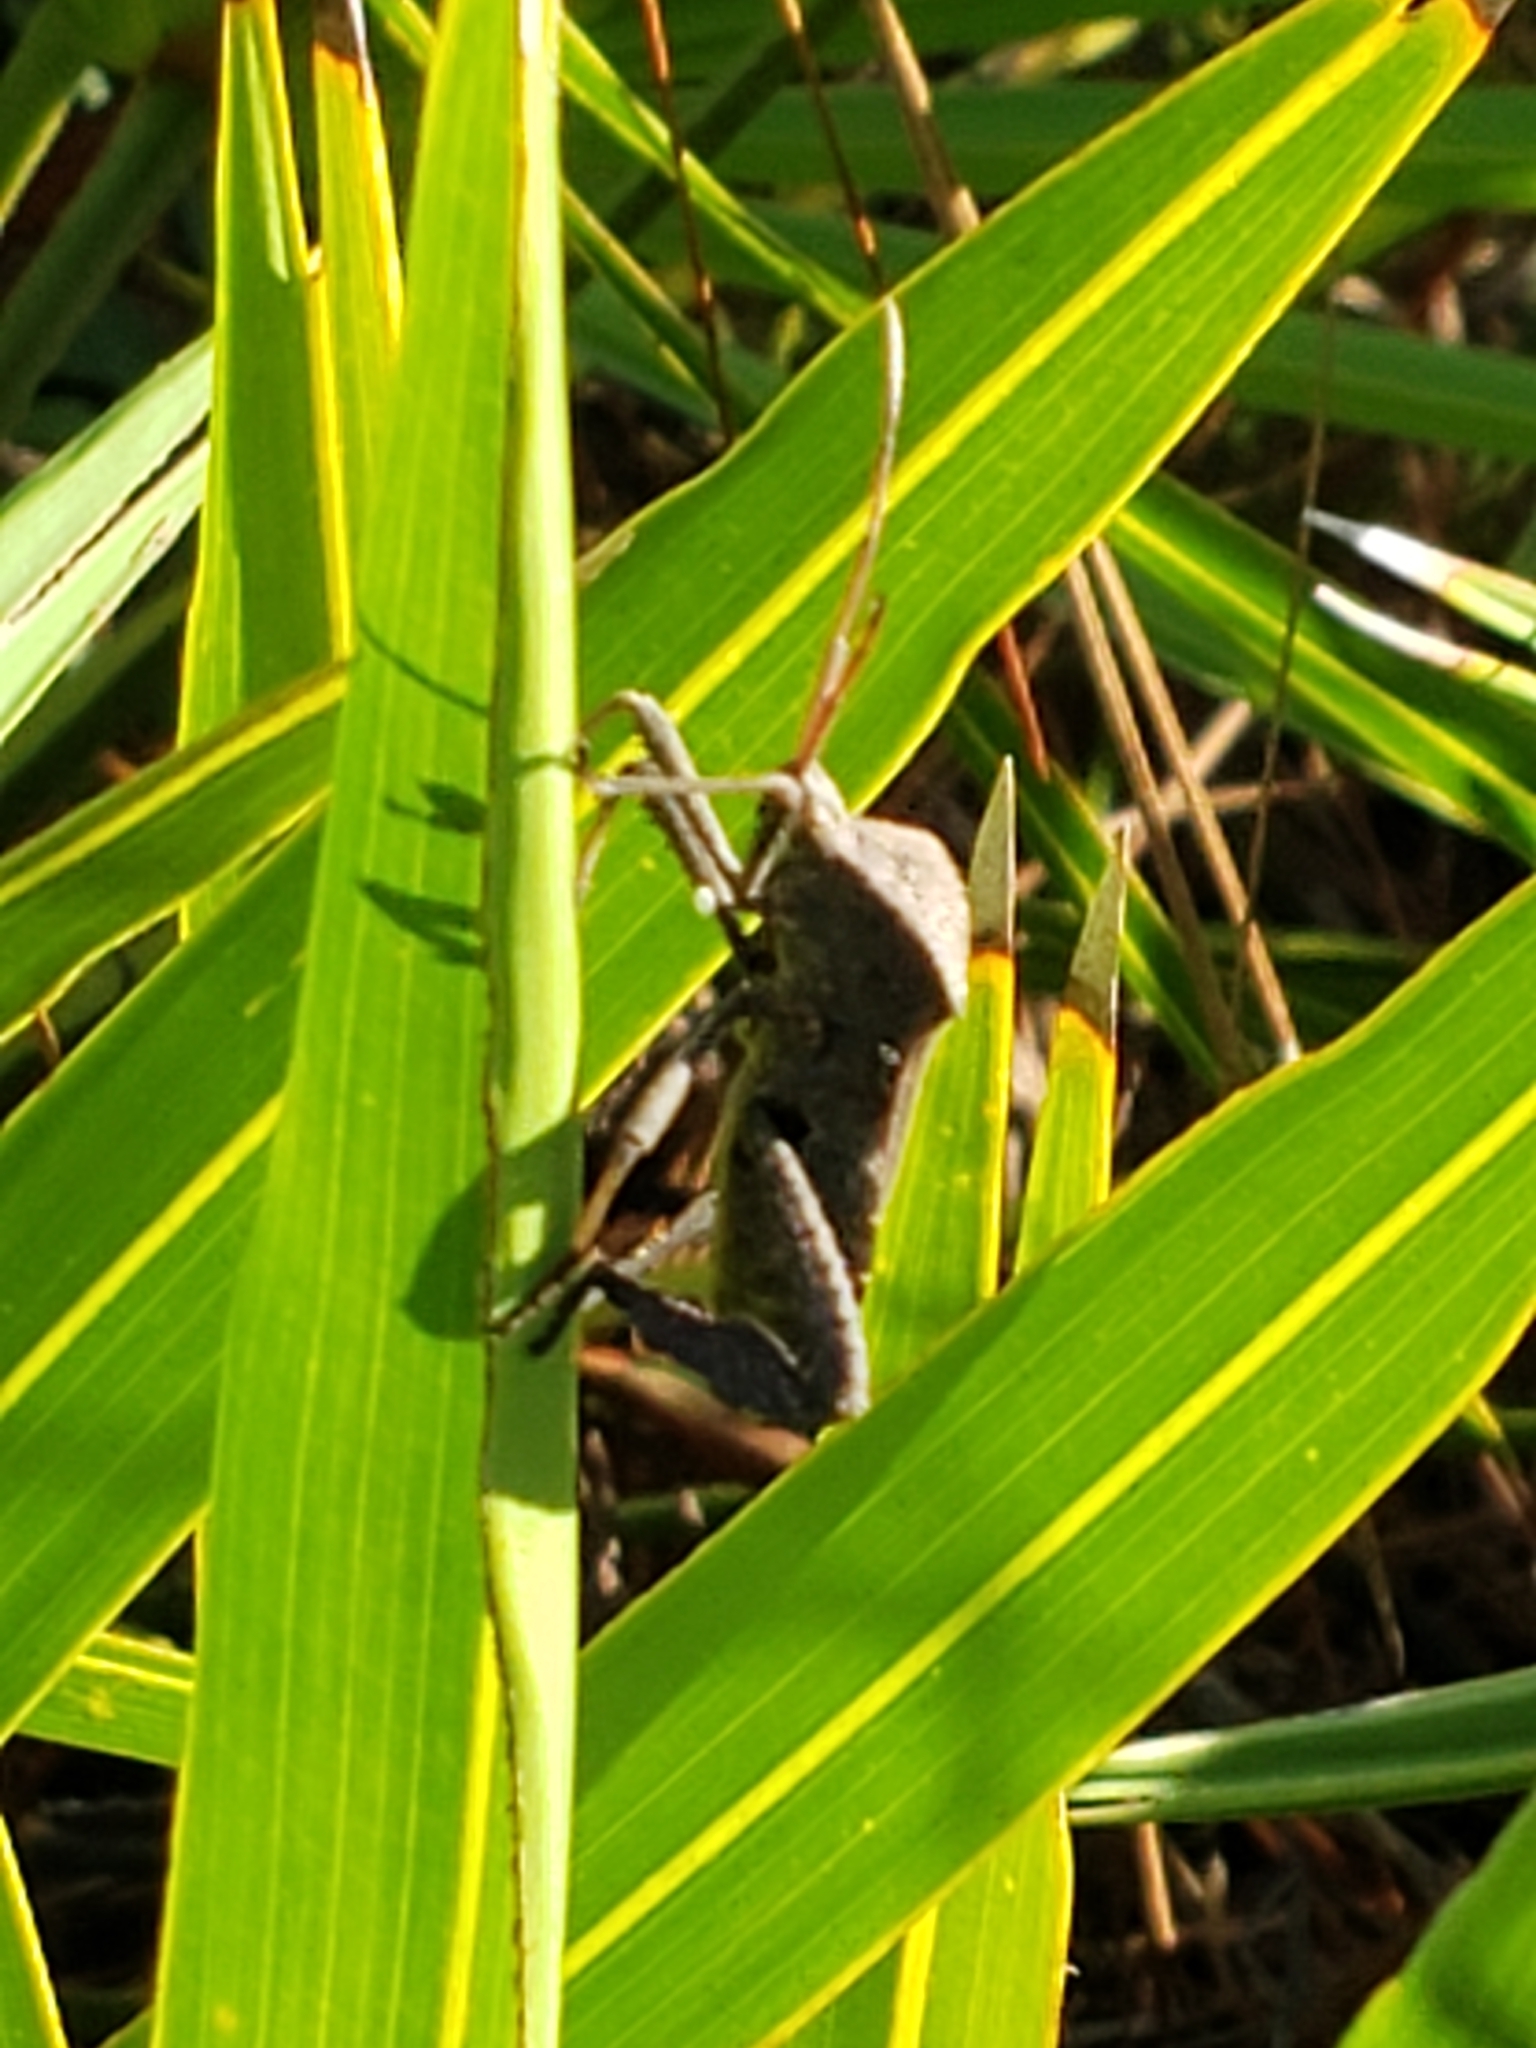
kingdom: Animalia
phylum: Arthropoda
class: Insecta
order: Hemiptera
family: Coreidae
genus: Acanthocephala
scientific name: Acanthocephala femorata
